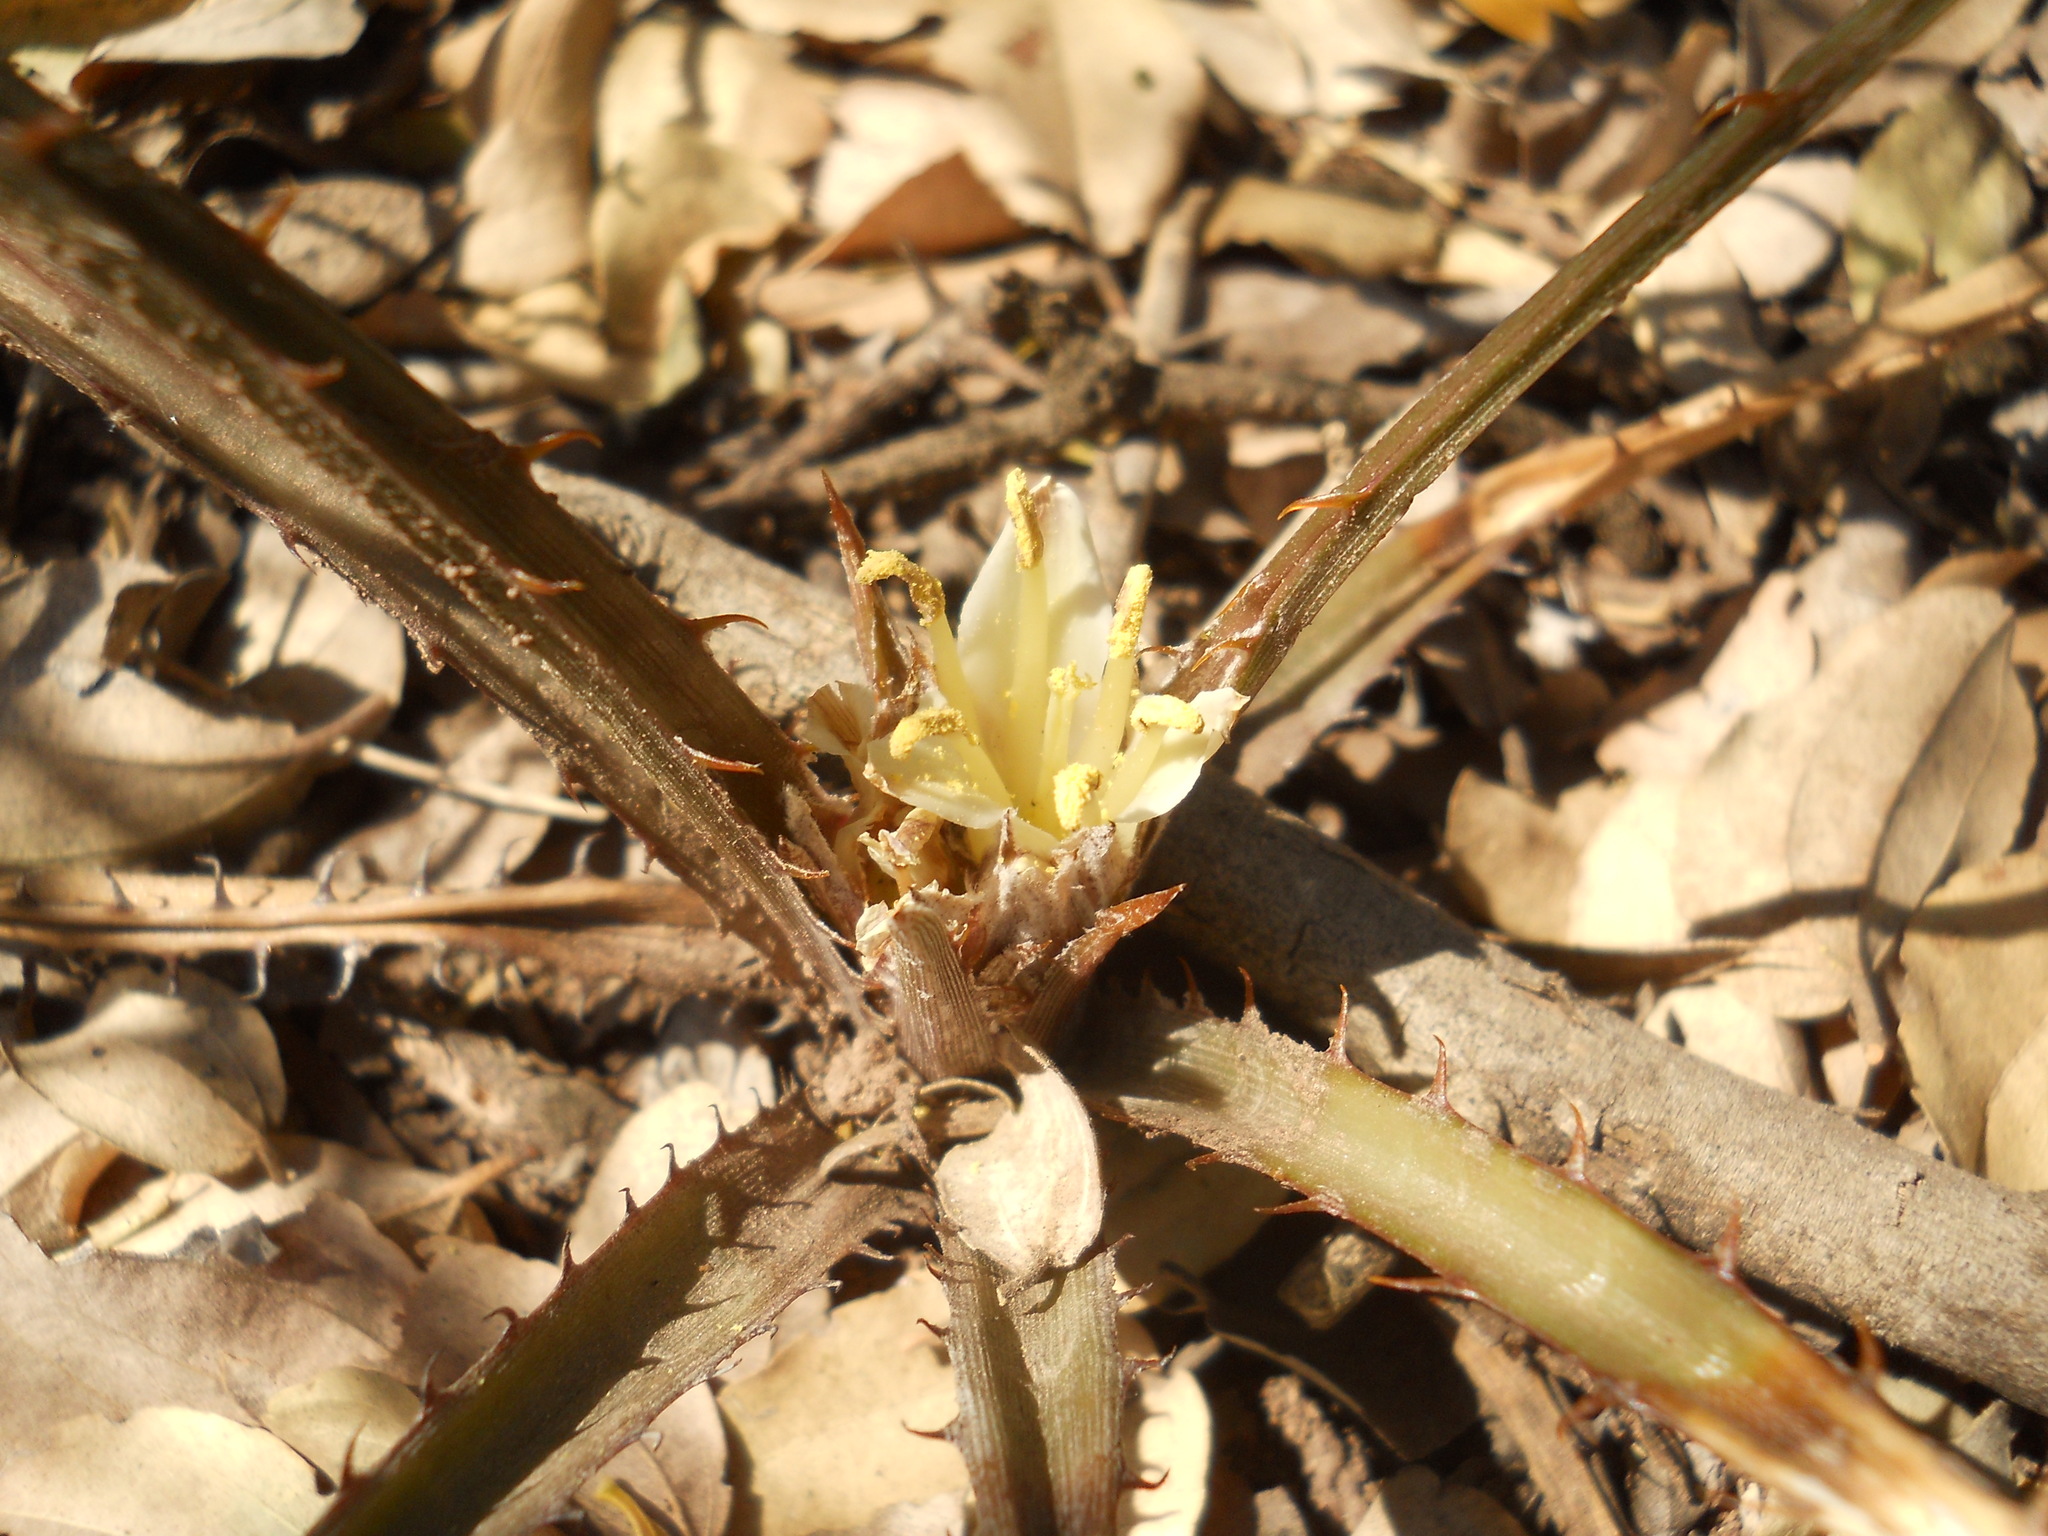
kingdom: Plantae
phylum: Tracheophyta
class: Liliopsida
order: Poales
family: Bromeliaceae
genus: Deinacanthon
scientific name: Deinacanthon urbanianum
